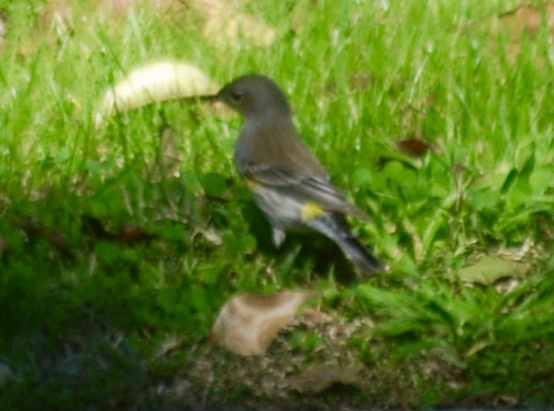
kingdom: Animalia
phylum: Chordata
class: Aves
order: Passeriformes
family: Parulidae
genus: Setophaga
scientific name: Setophaga coronata
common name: Myrtle warbler
